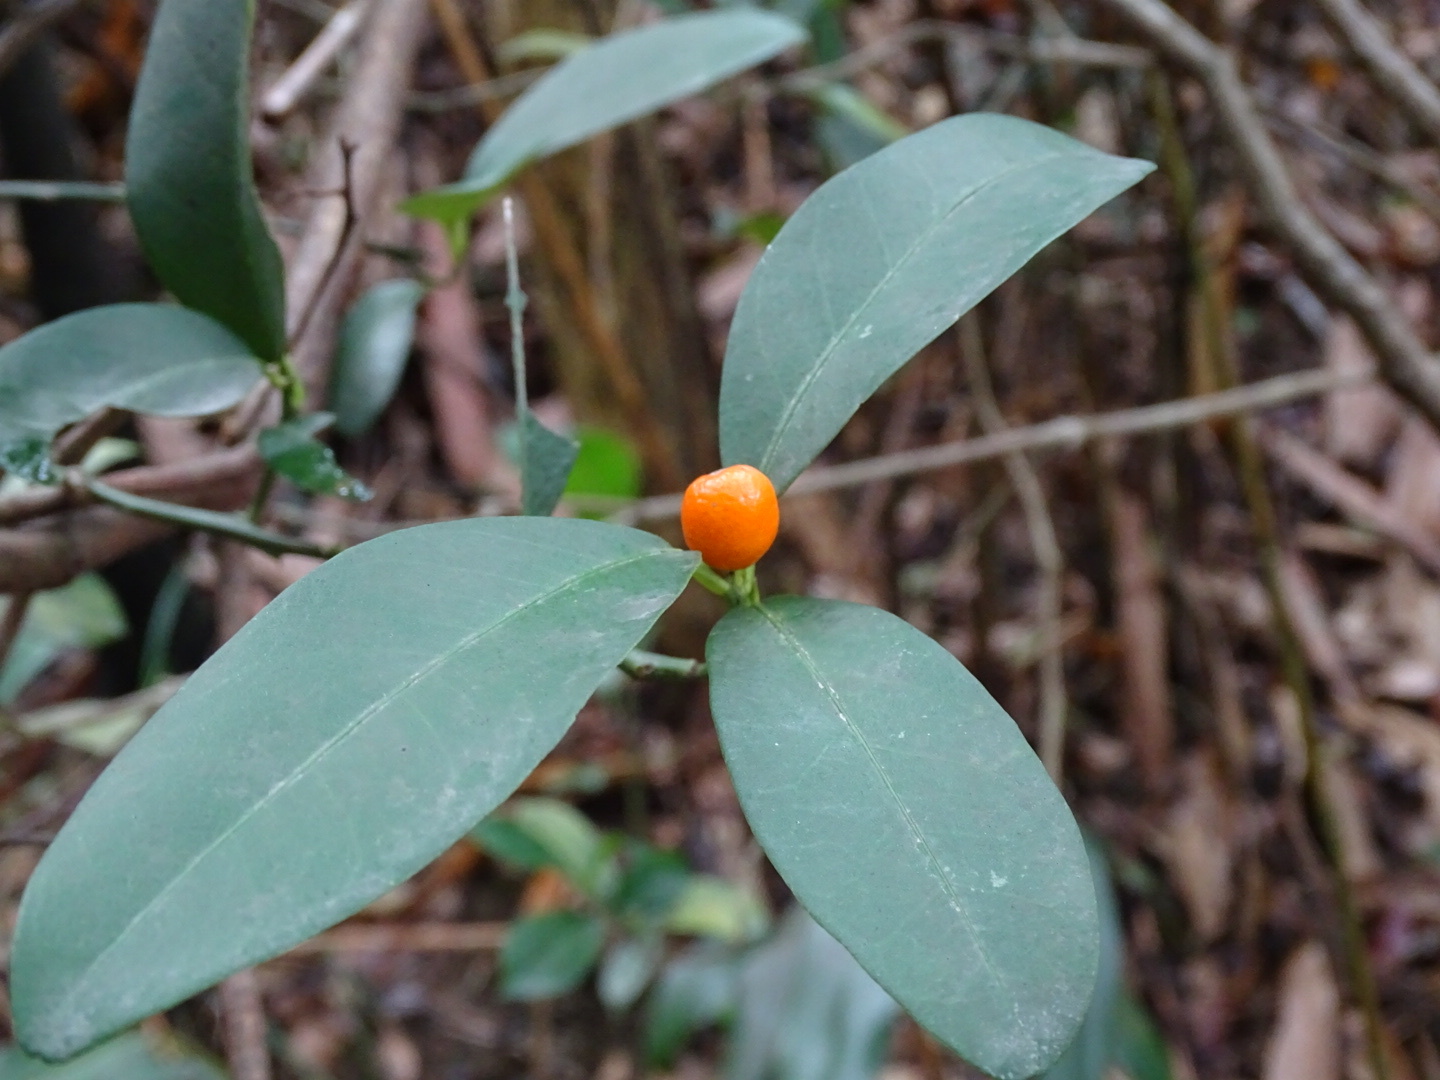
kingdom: Plantae
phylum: Tracheophyta
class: Magnoliopsida
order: Sapindales
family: Rutaceae
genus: Citrus
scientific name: Citrus japonica
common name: Kumquat
